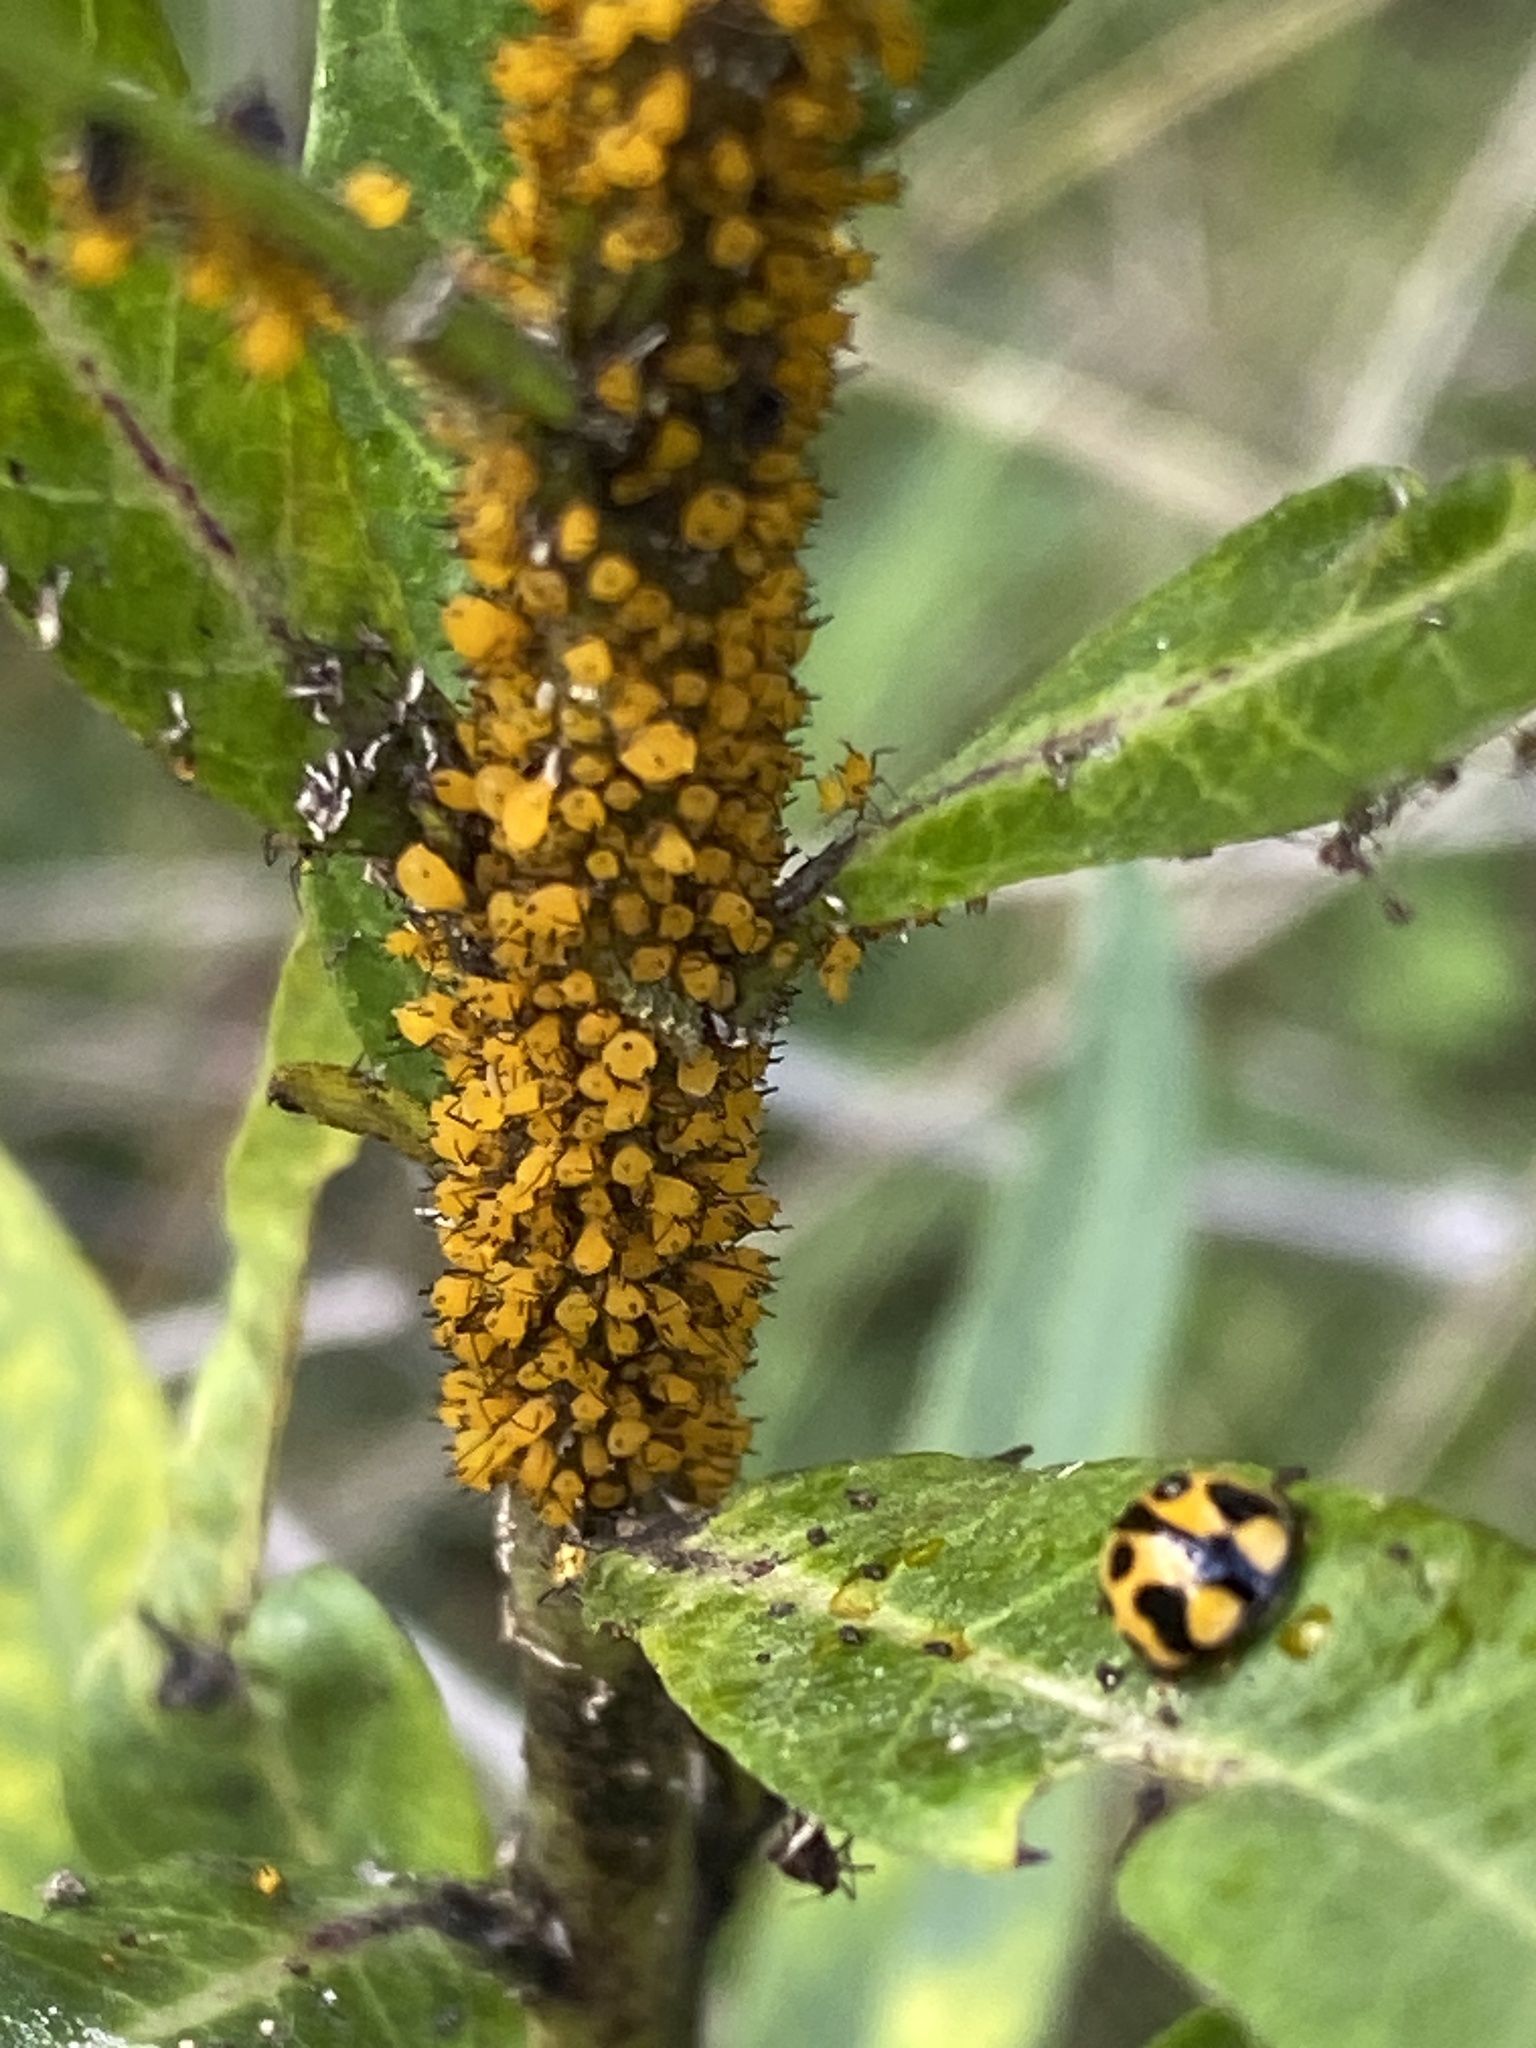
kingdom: Animalia
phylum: Arthropoda
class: Insecta
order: Hemiptera
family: Aphididae
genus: Aphis
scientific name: Aphis nerii
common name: Oleander aphid
